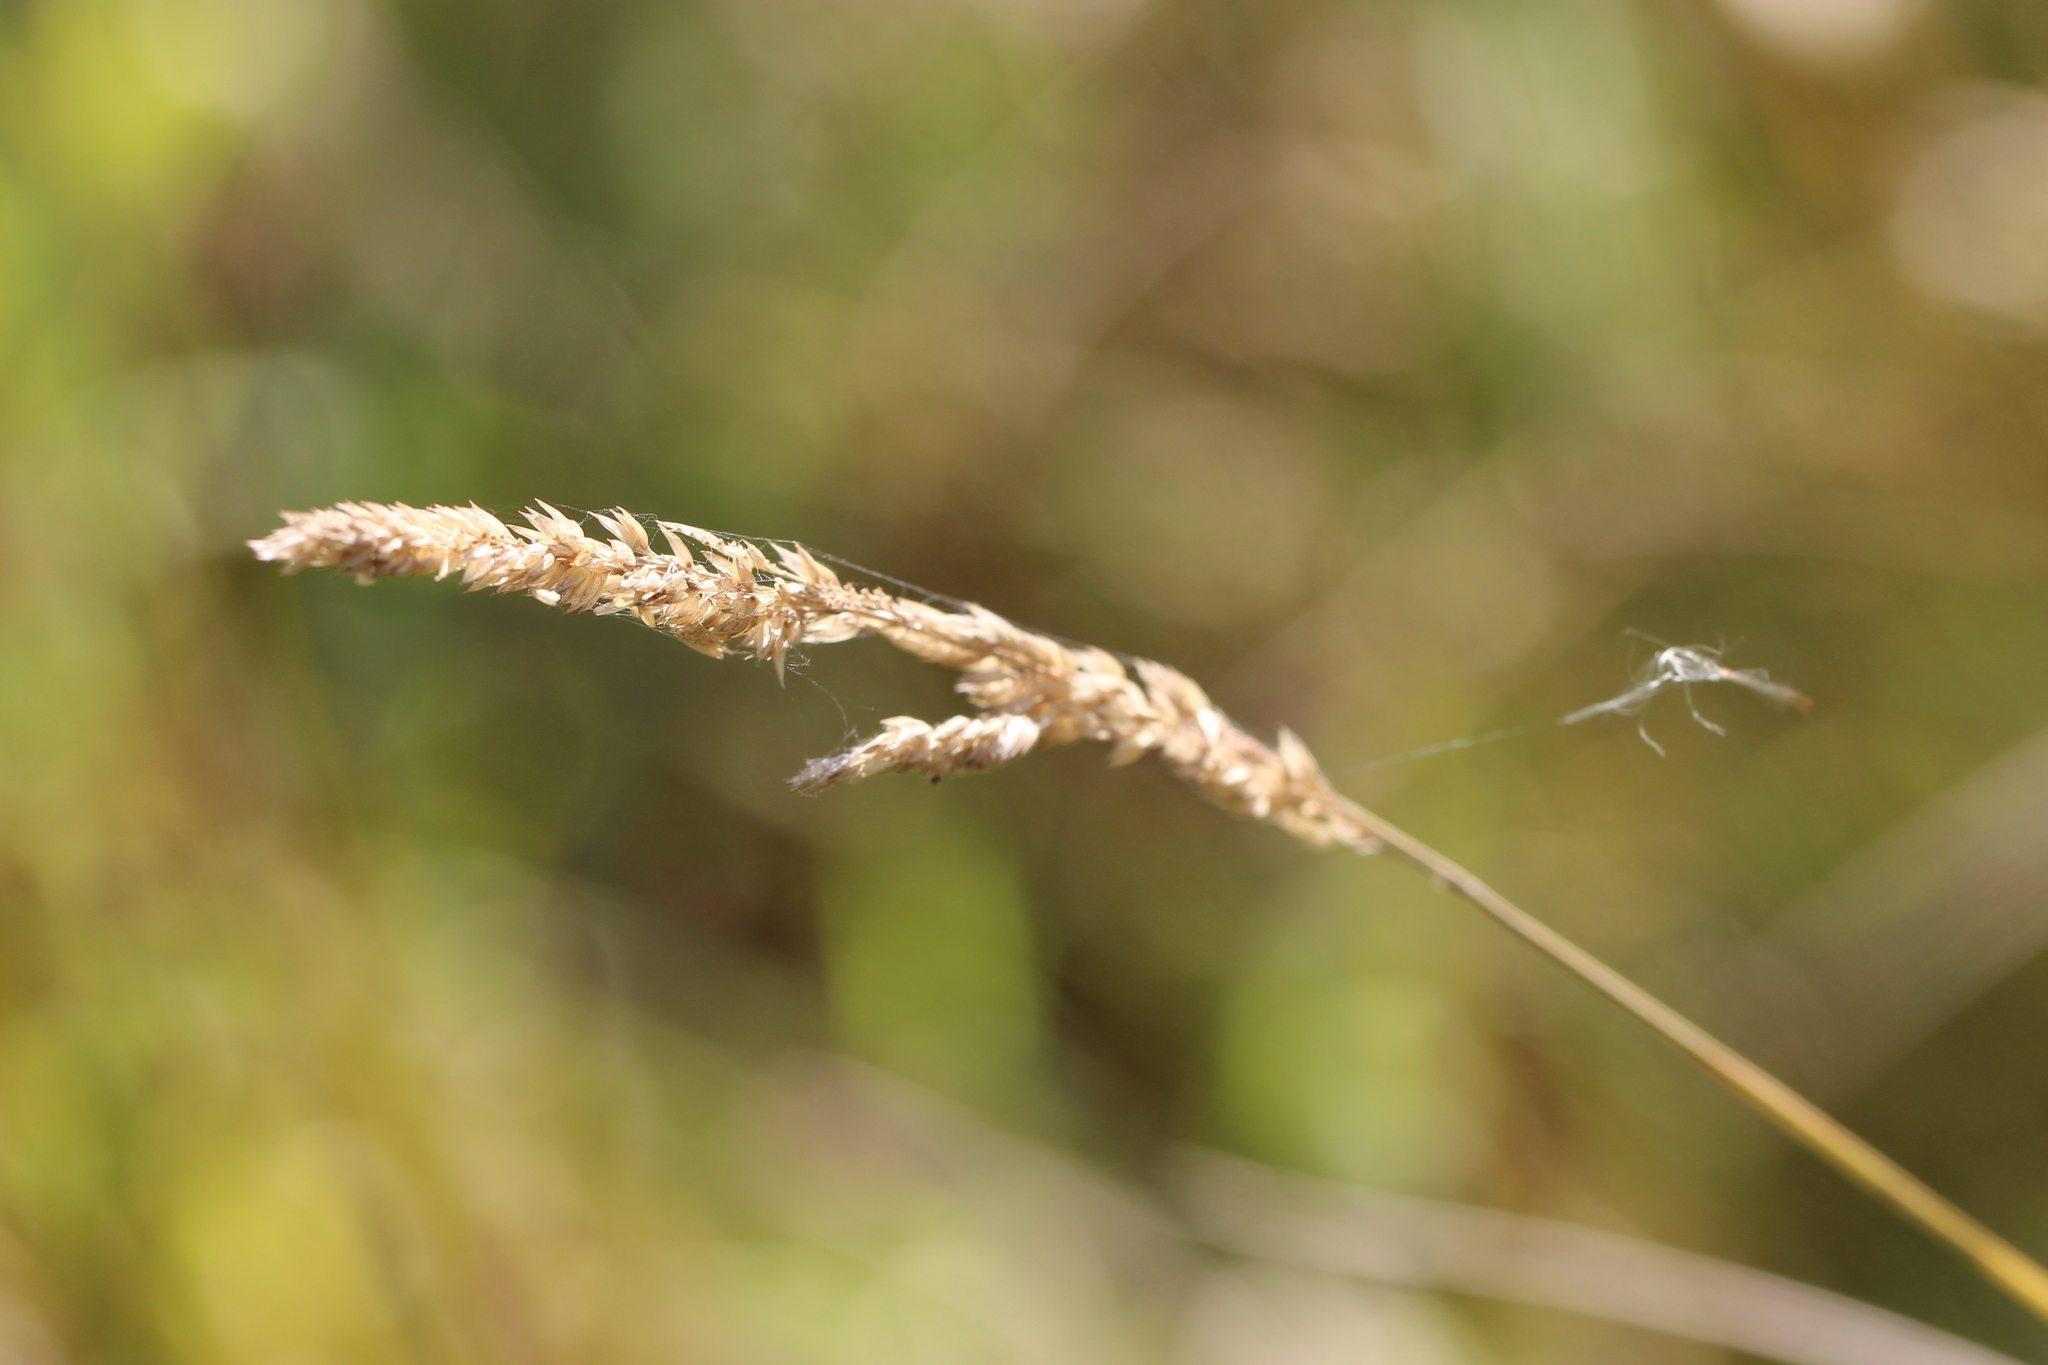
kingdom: Plantae
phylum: Tracheophyta
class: Liliopsida
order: Poales
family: Poaceae
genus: Phalaris
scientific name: Phalaris arundinacea
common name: Reed canary-grass
